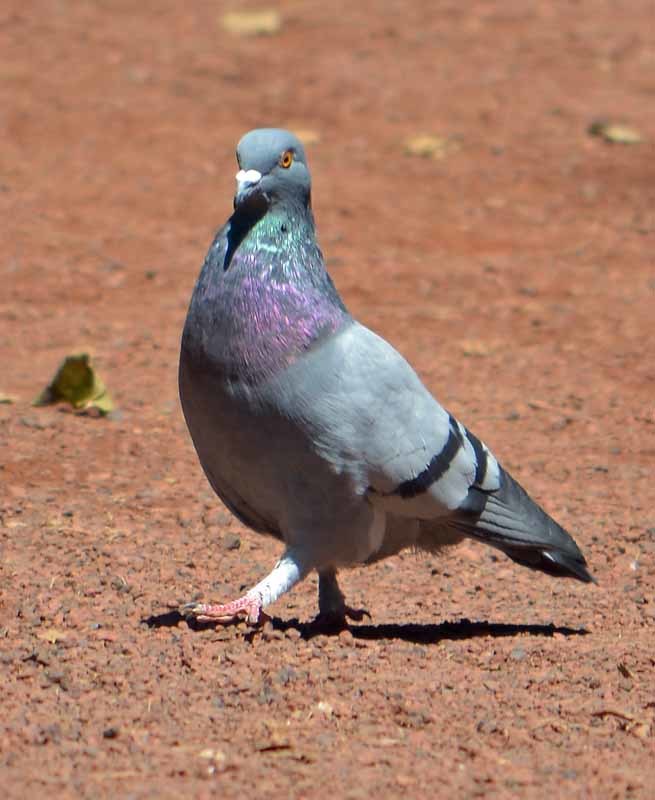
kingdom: Animalia
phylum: Chordata
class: Aves
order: Columbiformes
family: Columbidae
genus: Columba
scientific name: Columba livia
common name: Rock pigeon
